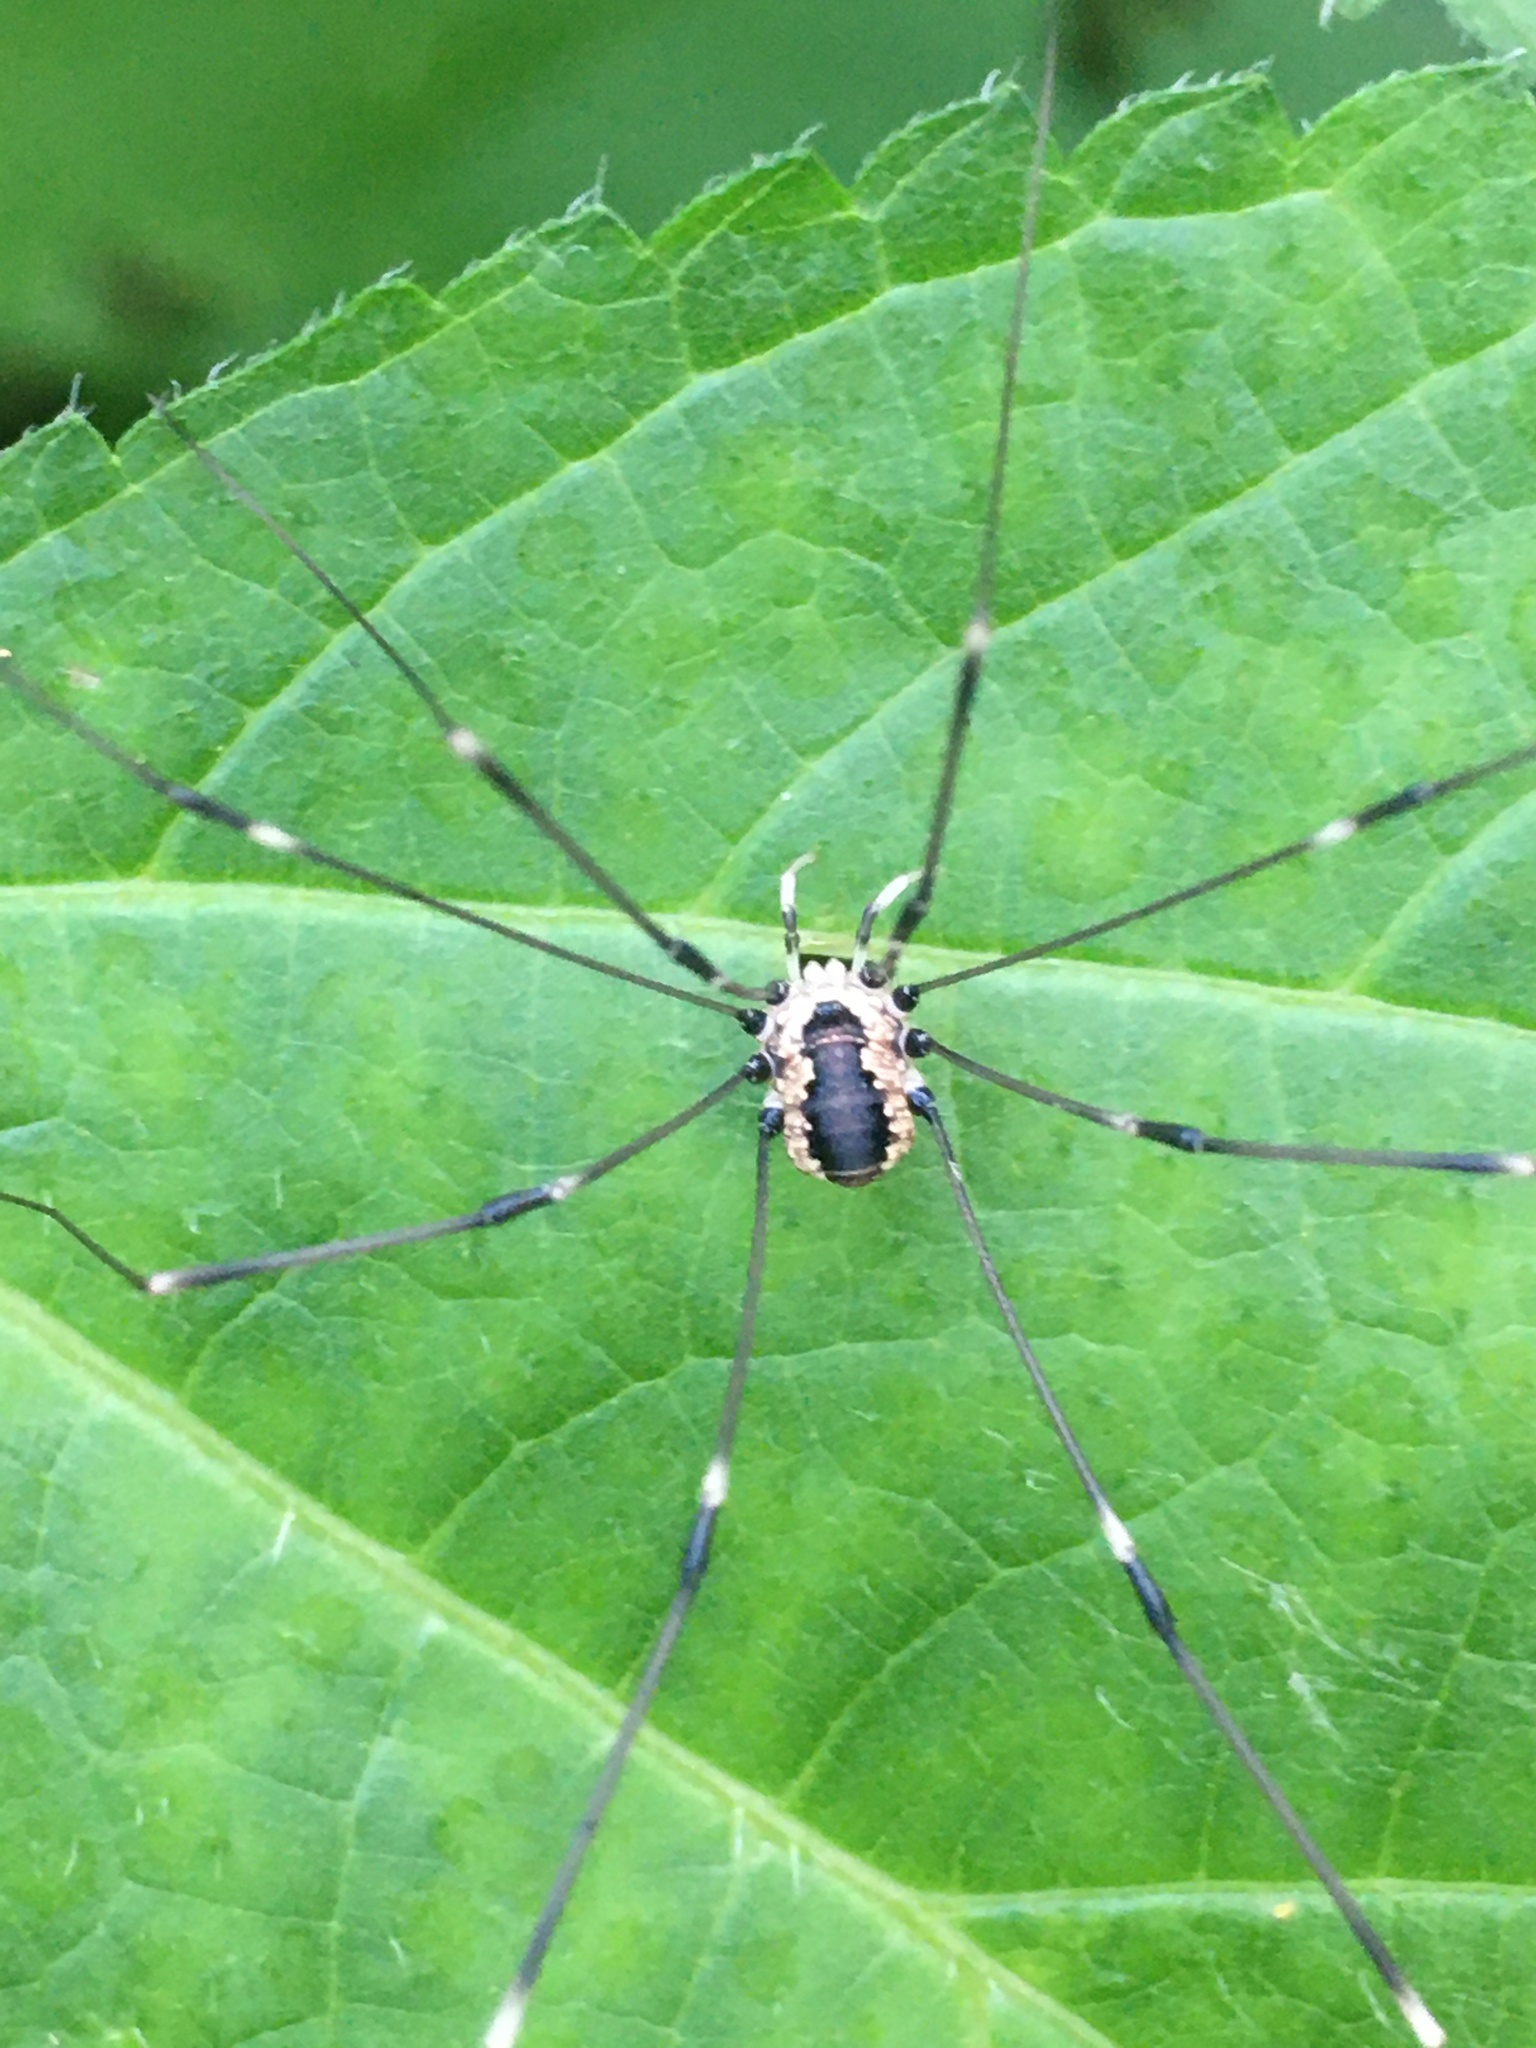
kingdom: Animalia
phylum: Arthropoda
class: Arachnida
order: Opiliones
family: Sclerosomatidae
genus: Leiobunum
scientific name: Leiobunum aldrichi
